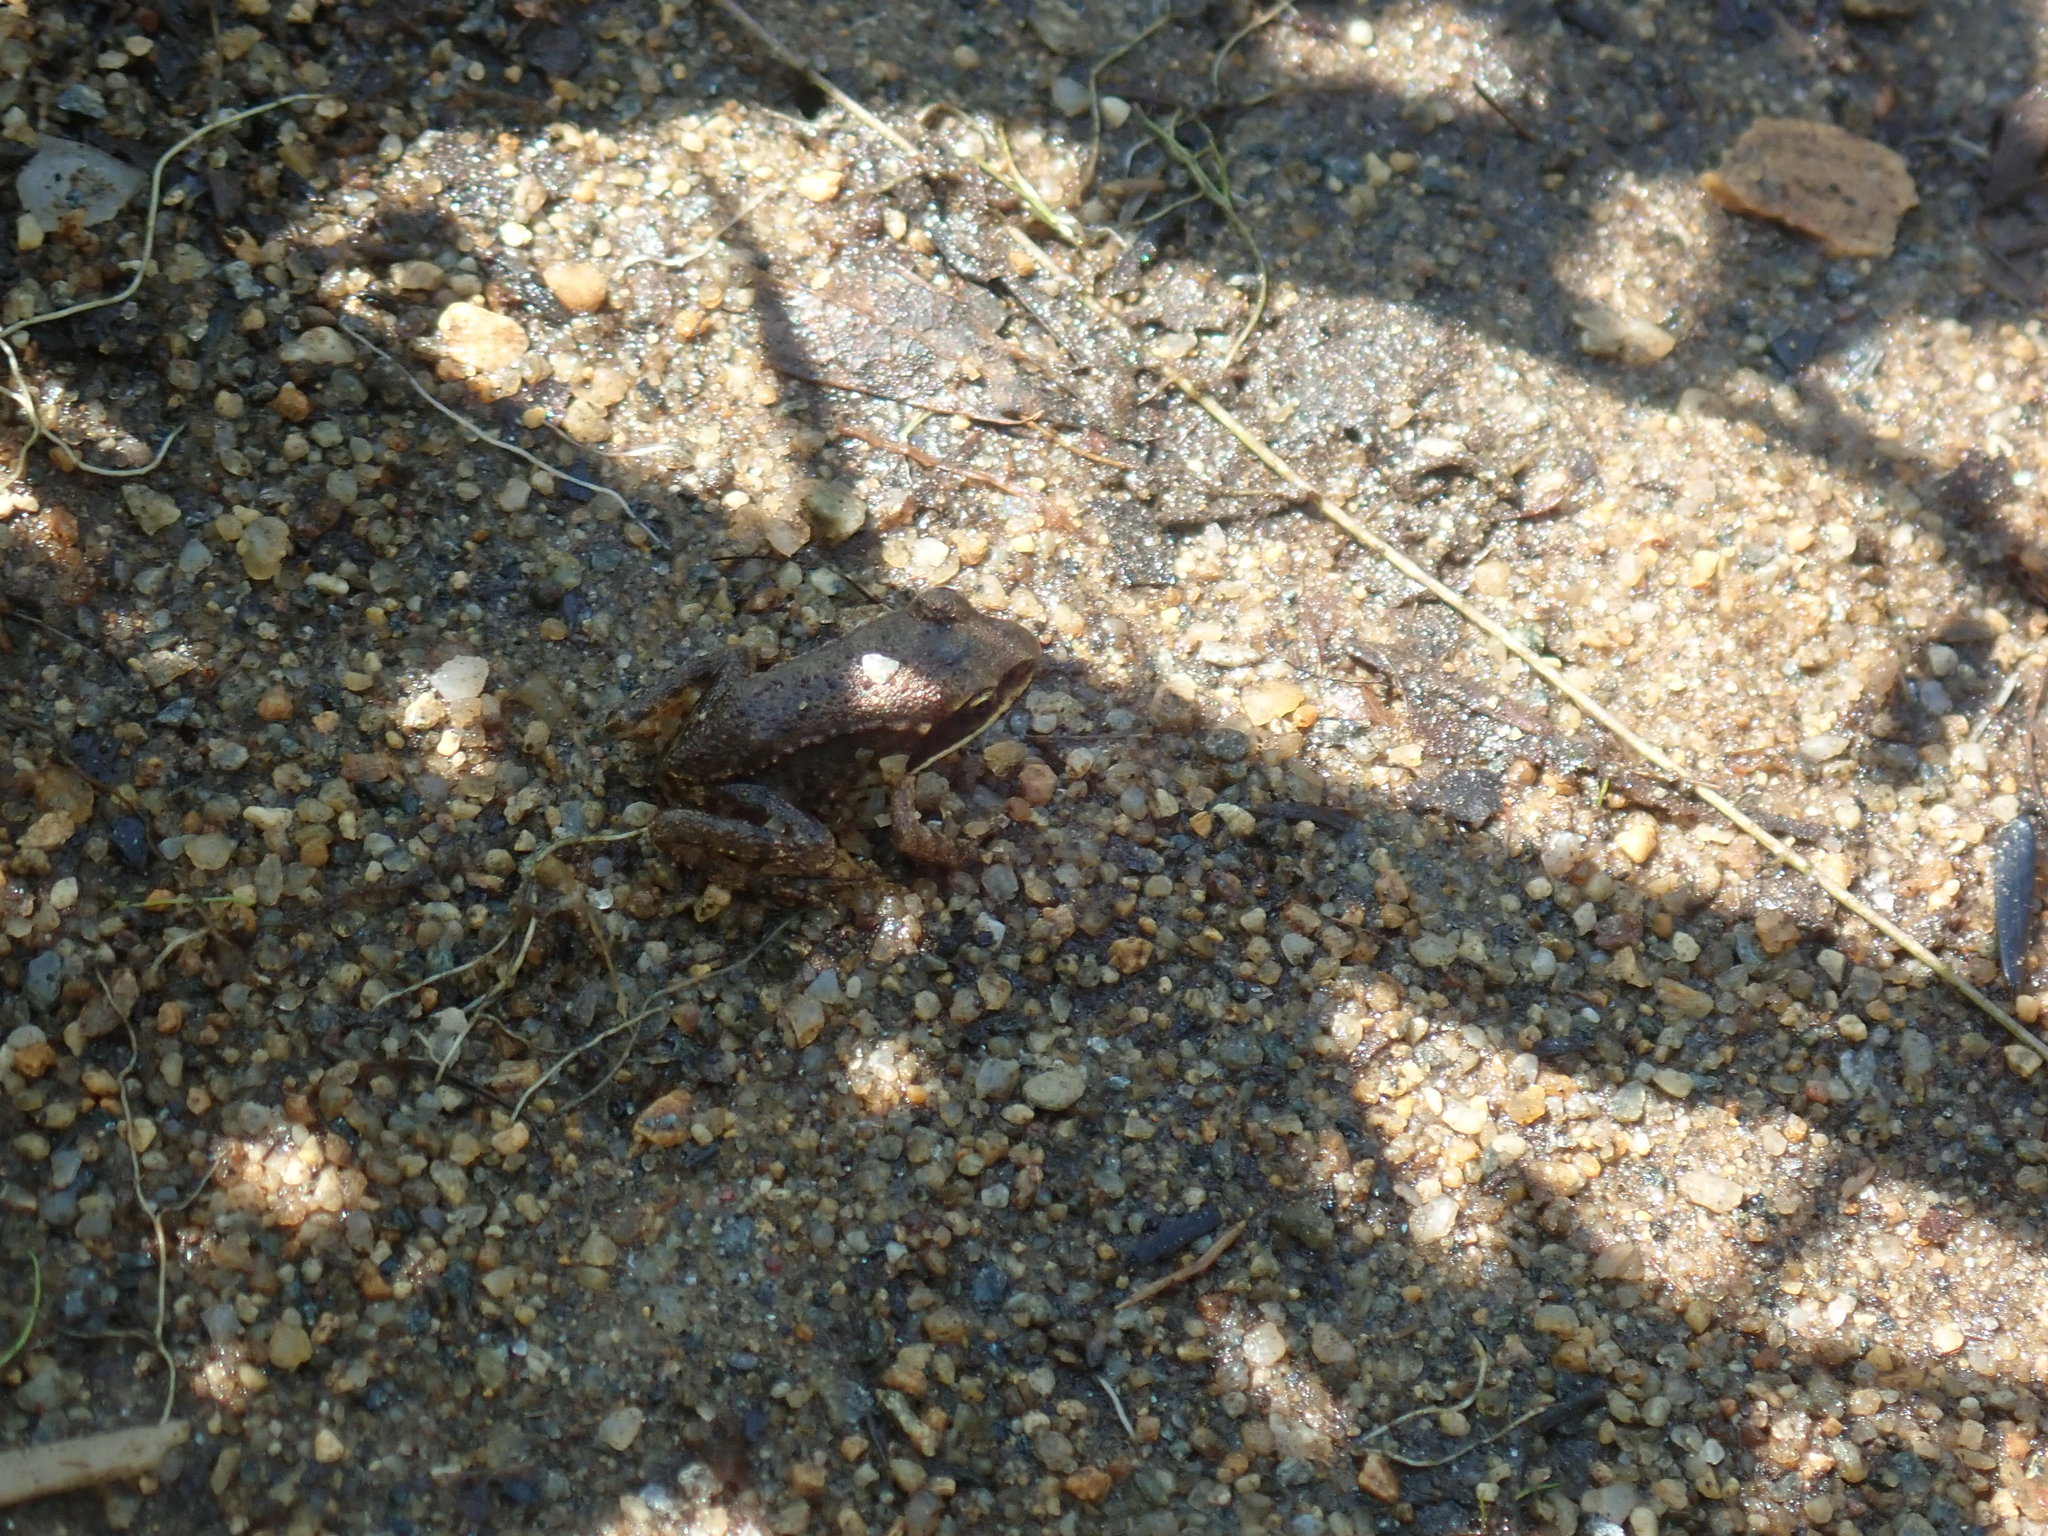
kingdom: Animalia
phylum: Chordata
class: Amphibia
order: Anura
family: Ranidae
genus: Lithobates
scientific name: Lithobates sylvaticus
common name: Wood frog
